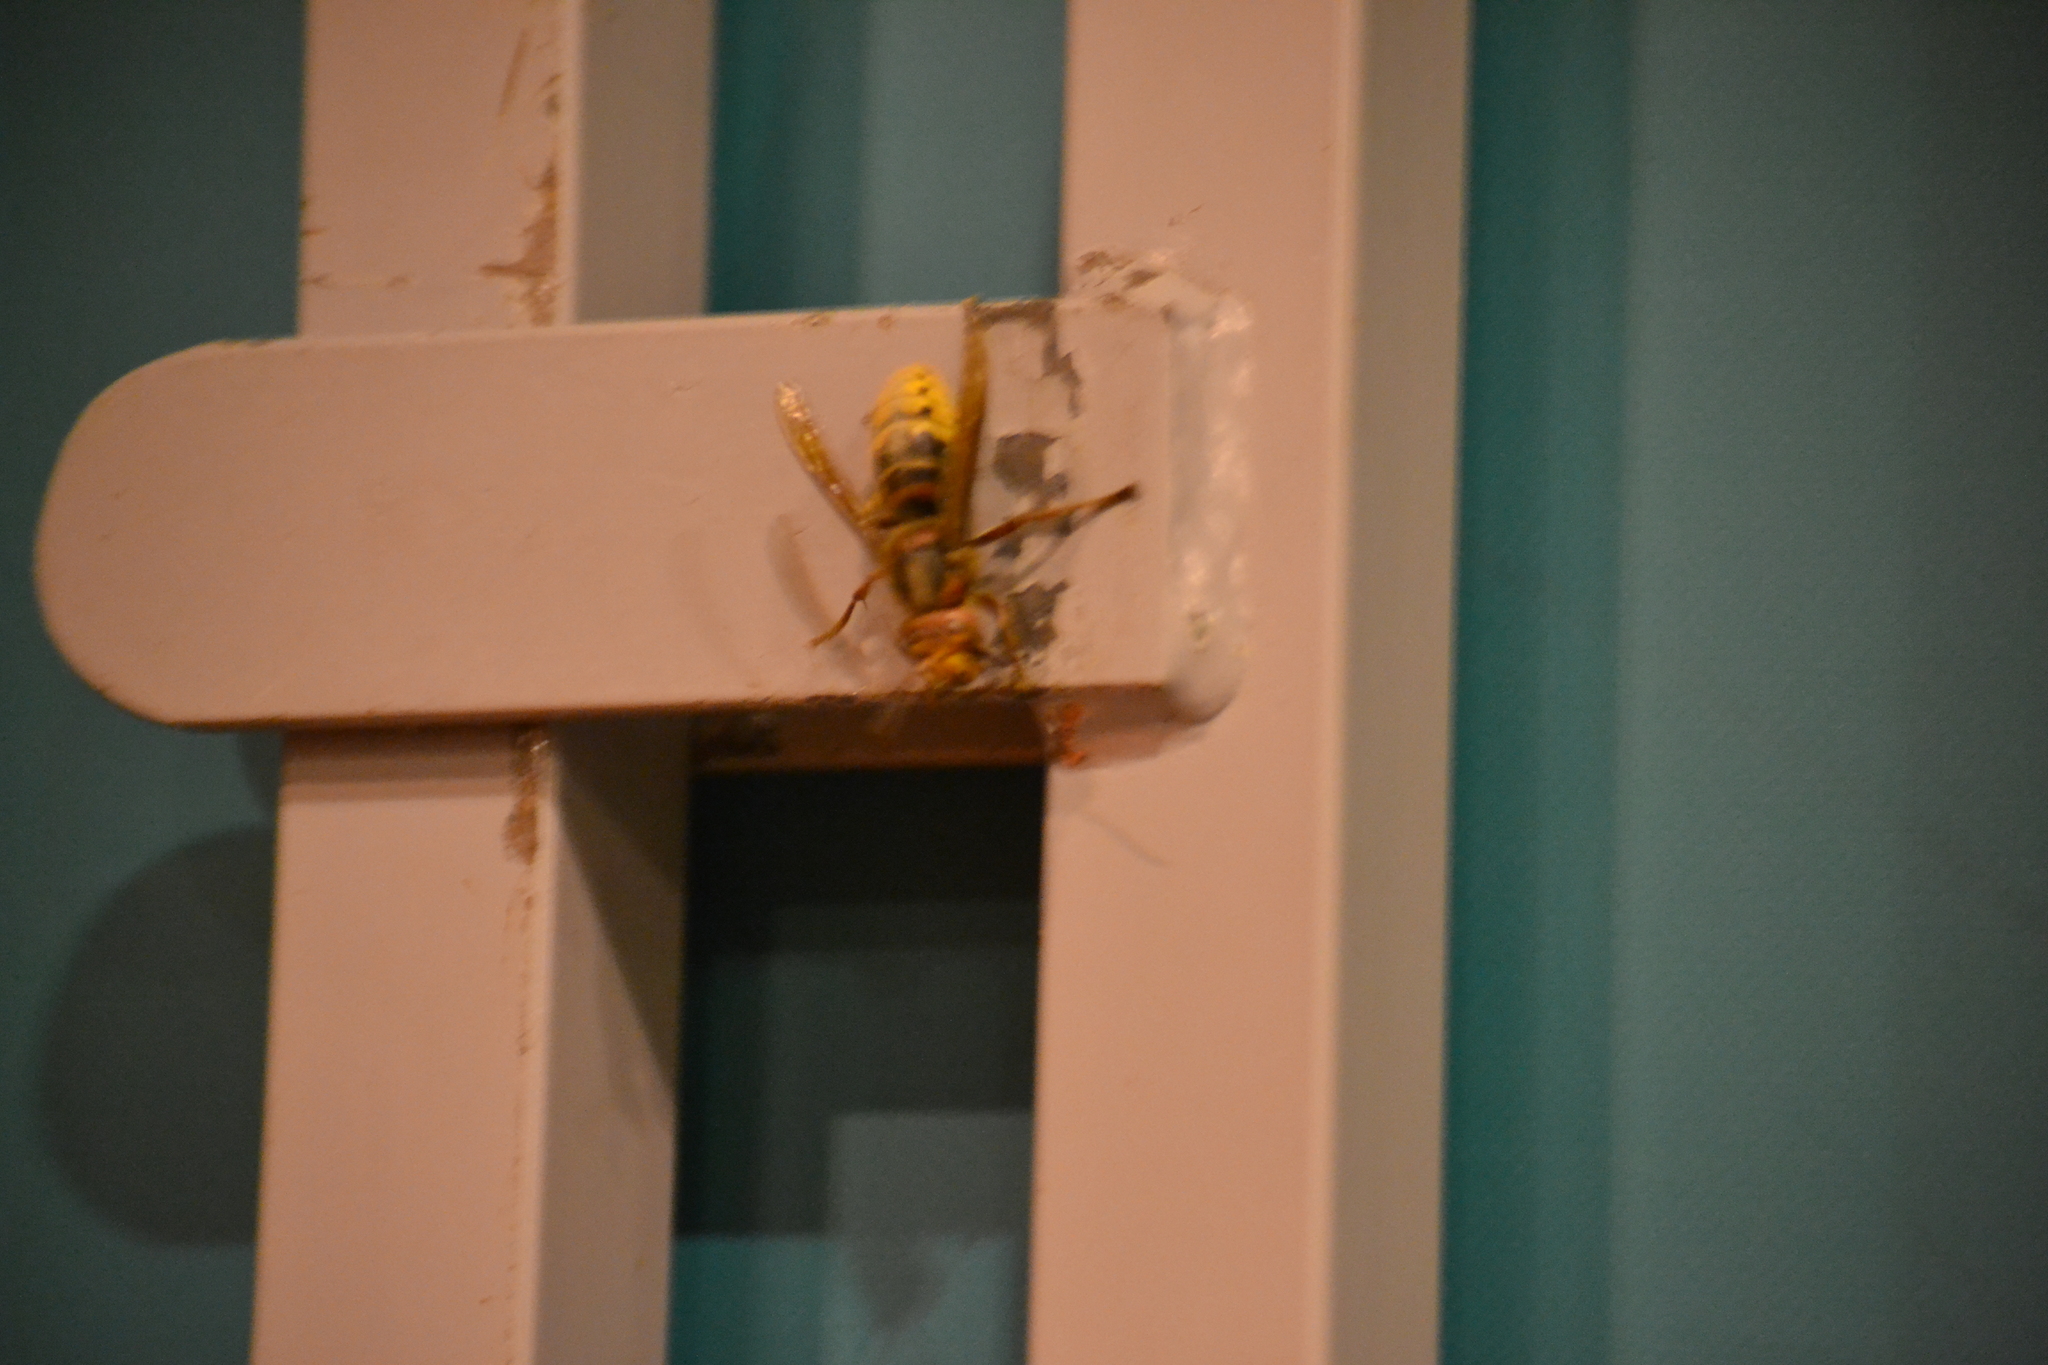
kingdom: Animalia
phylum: Arthropoda
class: Insecta
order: Hymenoptera
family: Vespidae
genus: Vespa
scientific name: Vespa crabro
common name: Hornet
